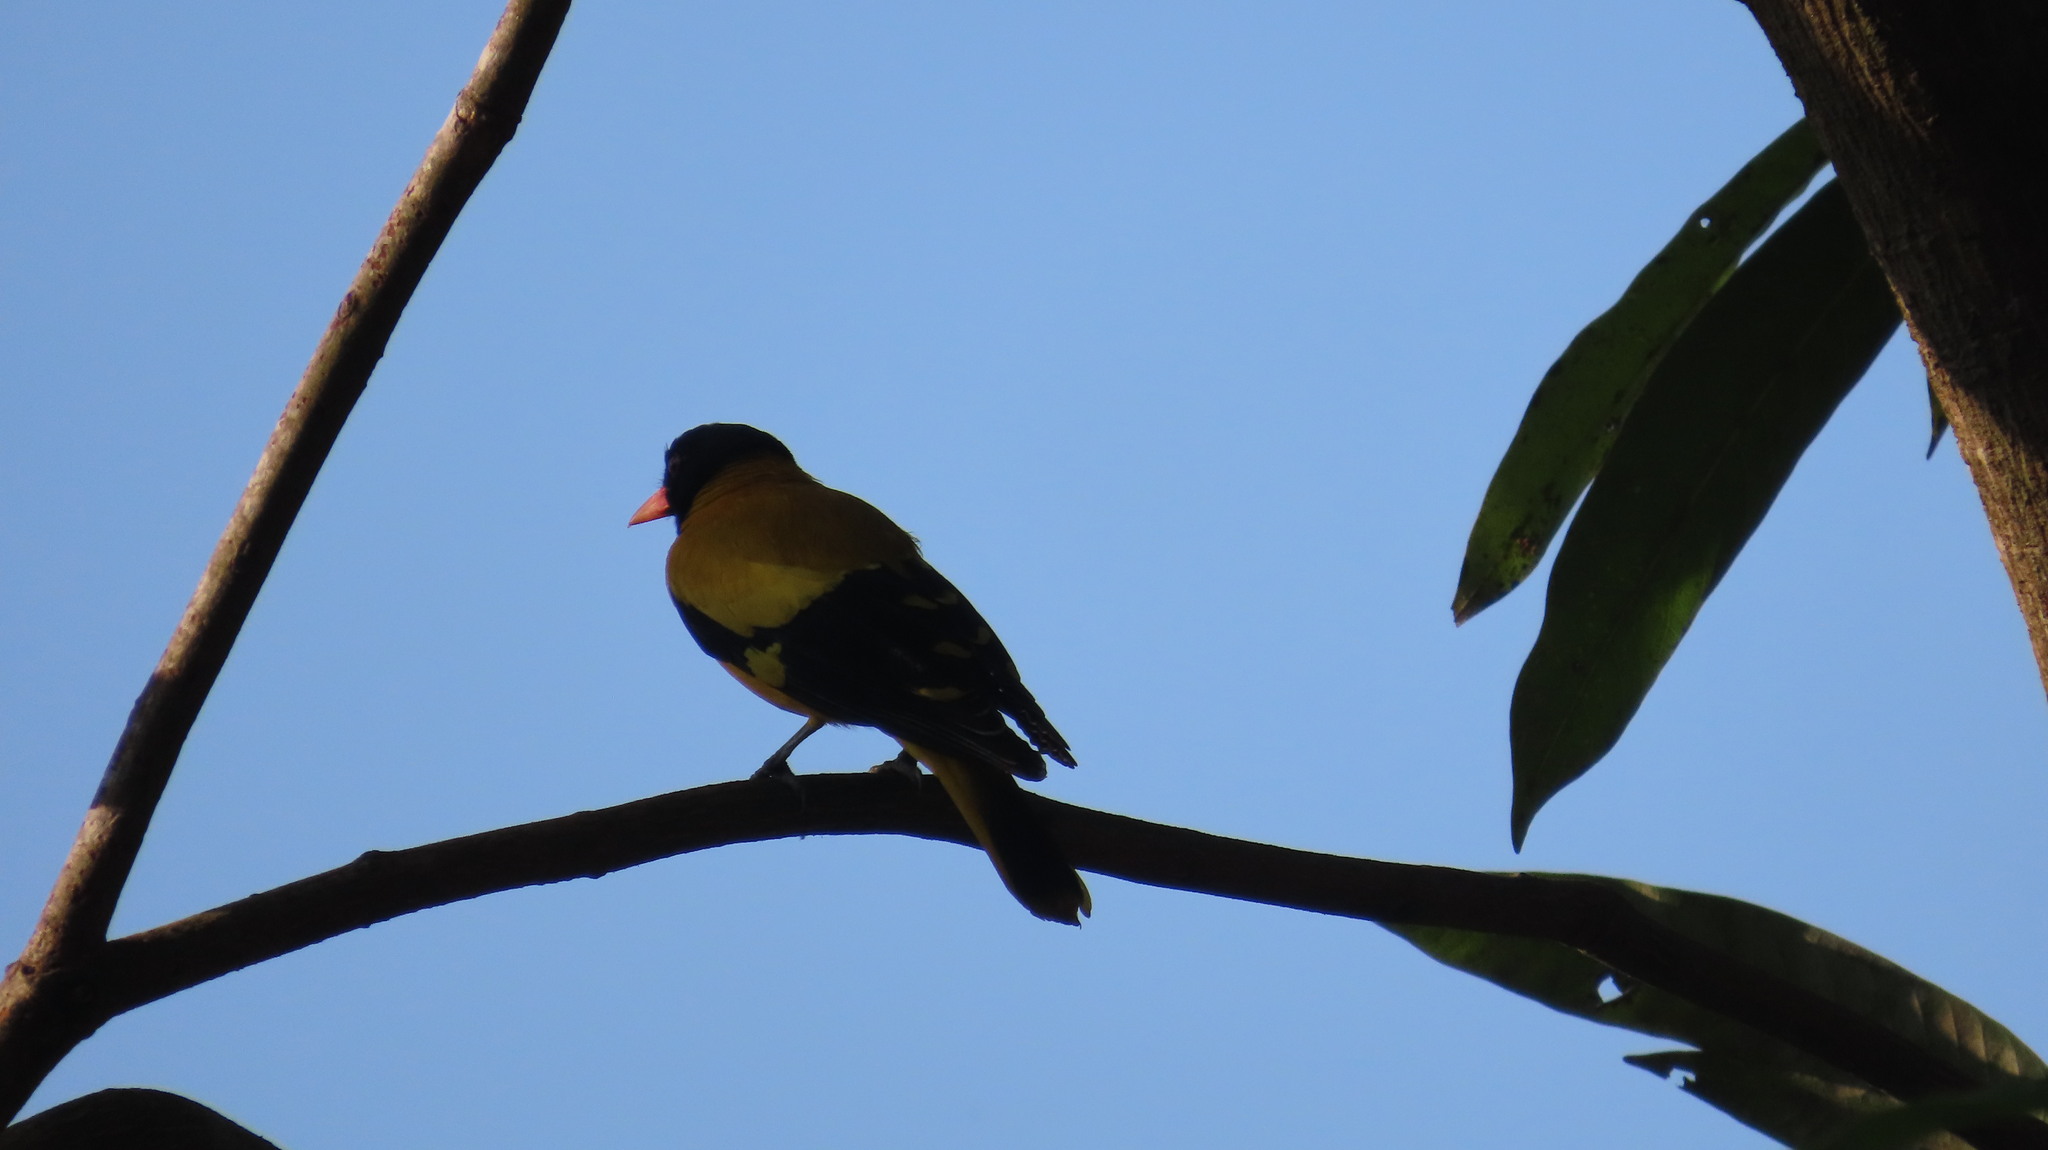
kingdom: Animalia
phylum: Chordata
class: Aves
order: Passeriformes
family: Oriolidae
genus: Oriolus
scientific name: Oriolus xanthornus
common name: Black-hooded oriole
